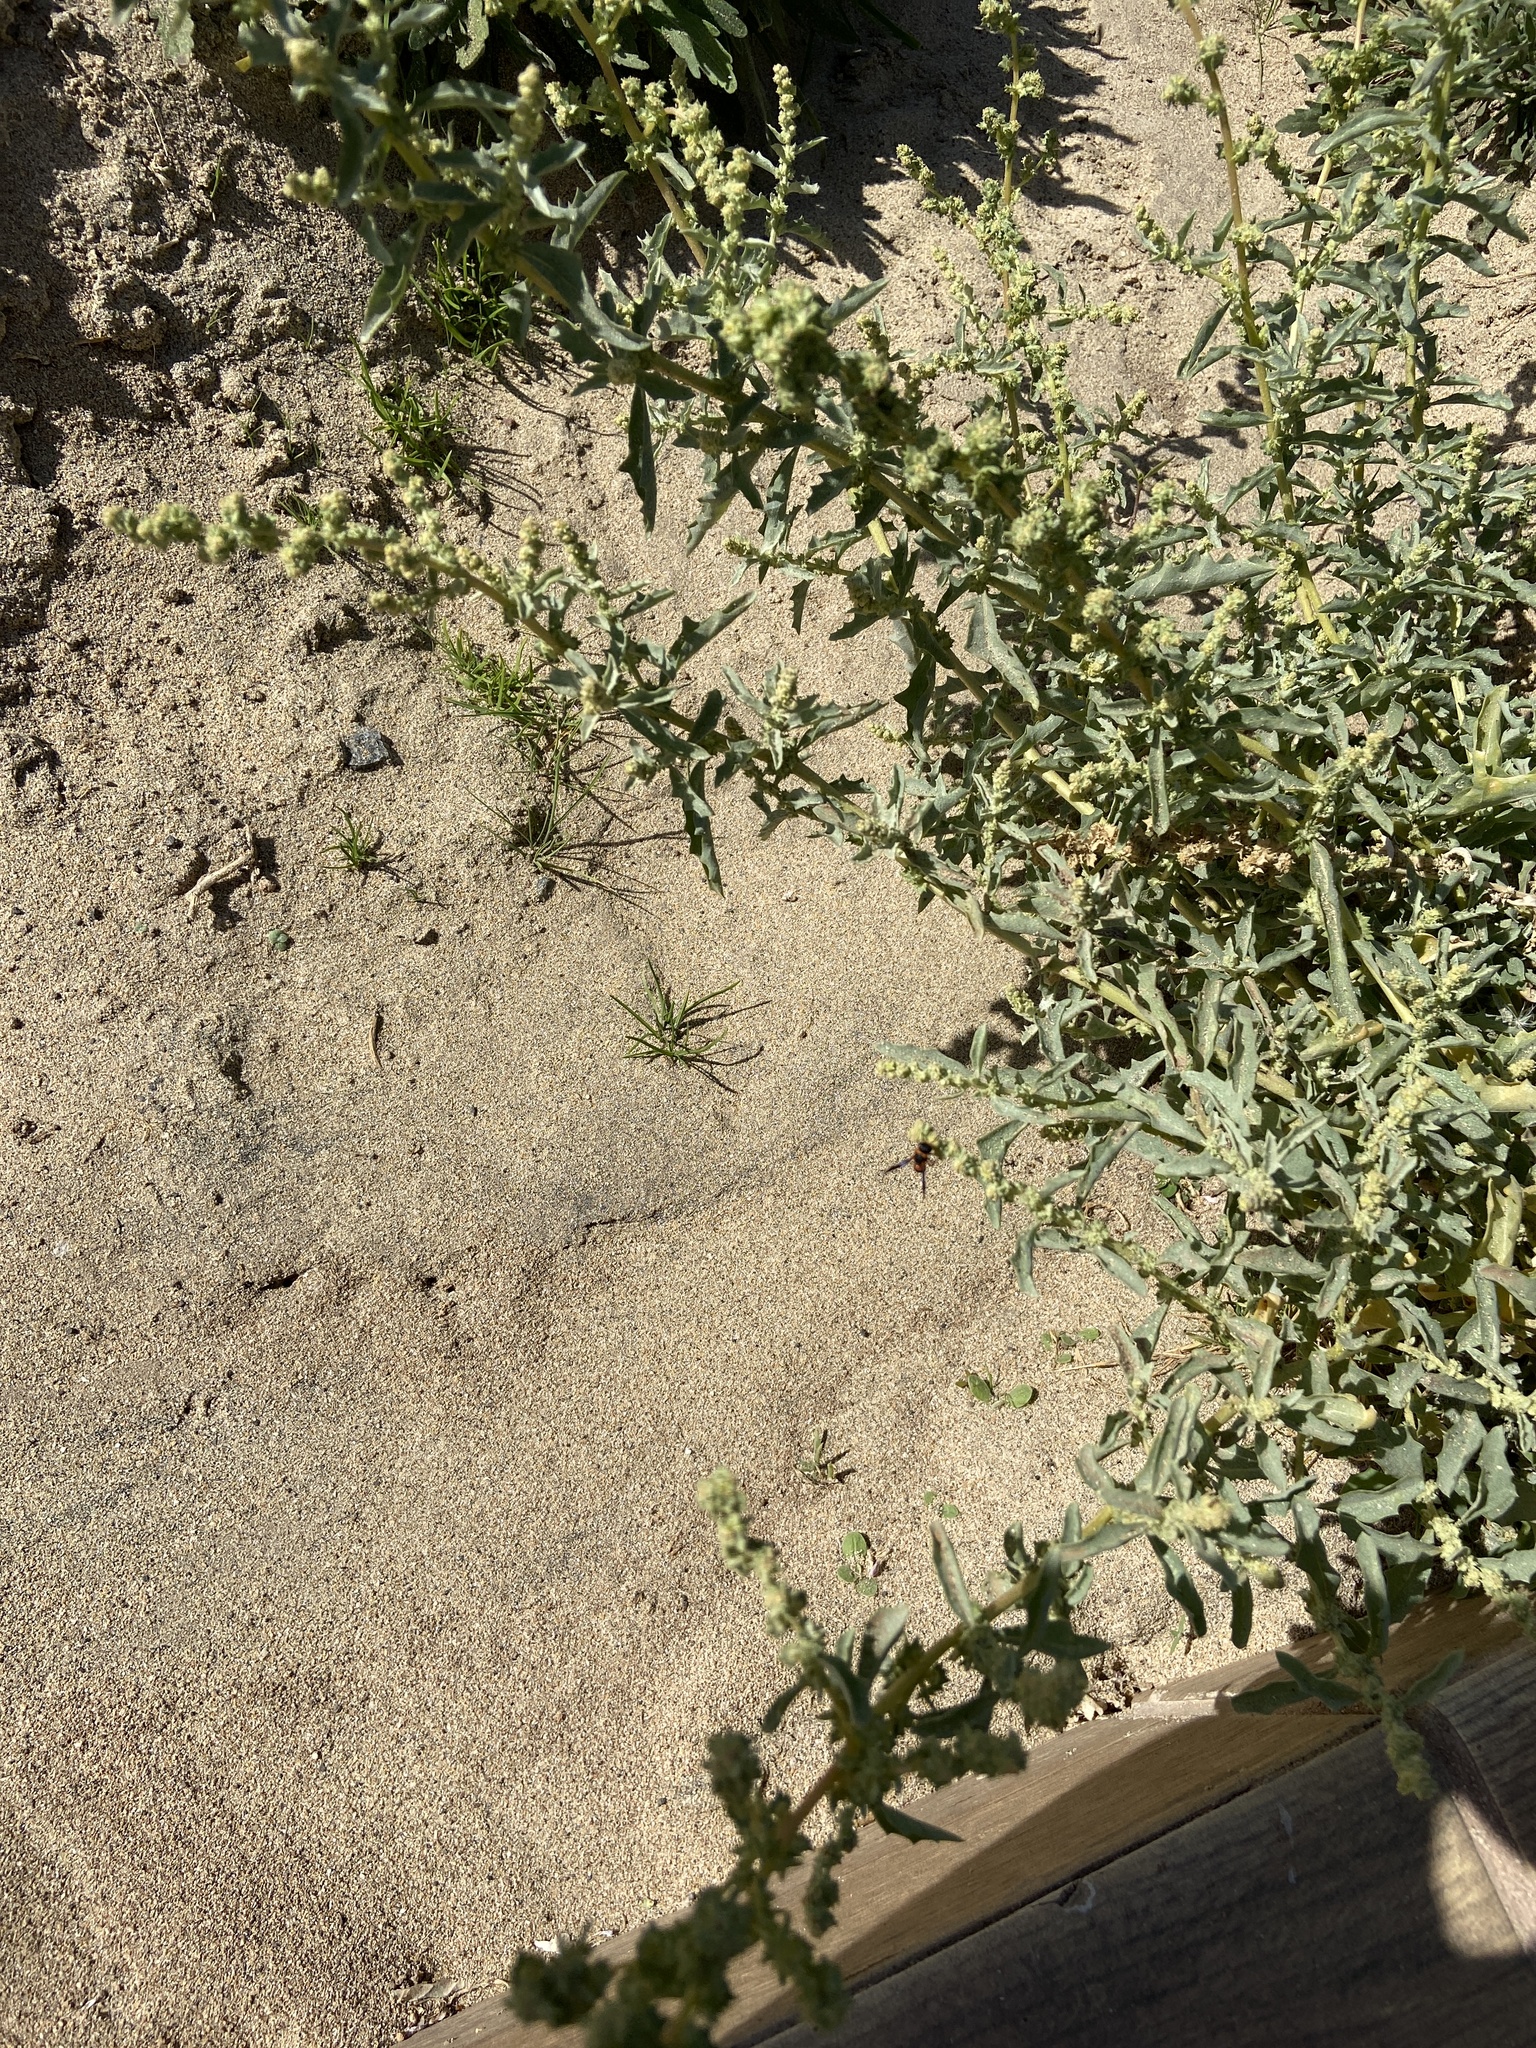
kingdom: Plantae
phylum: Tracheophyta
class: Magnoliopsida
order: Caryophyllales
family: Amaranthaceae
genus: Atriplex
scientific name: Atriplex semilunaris
